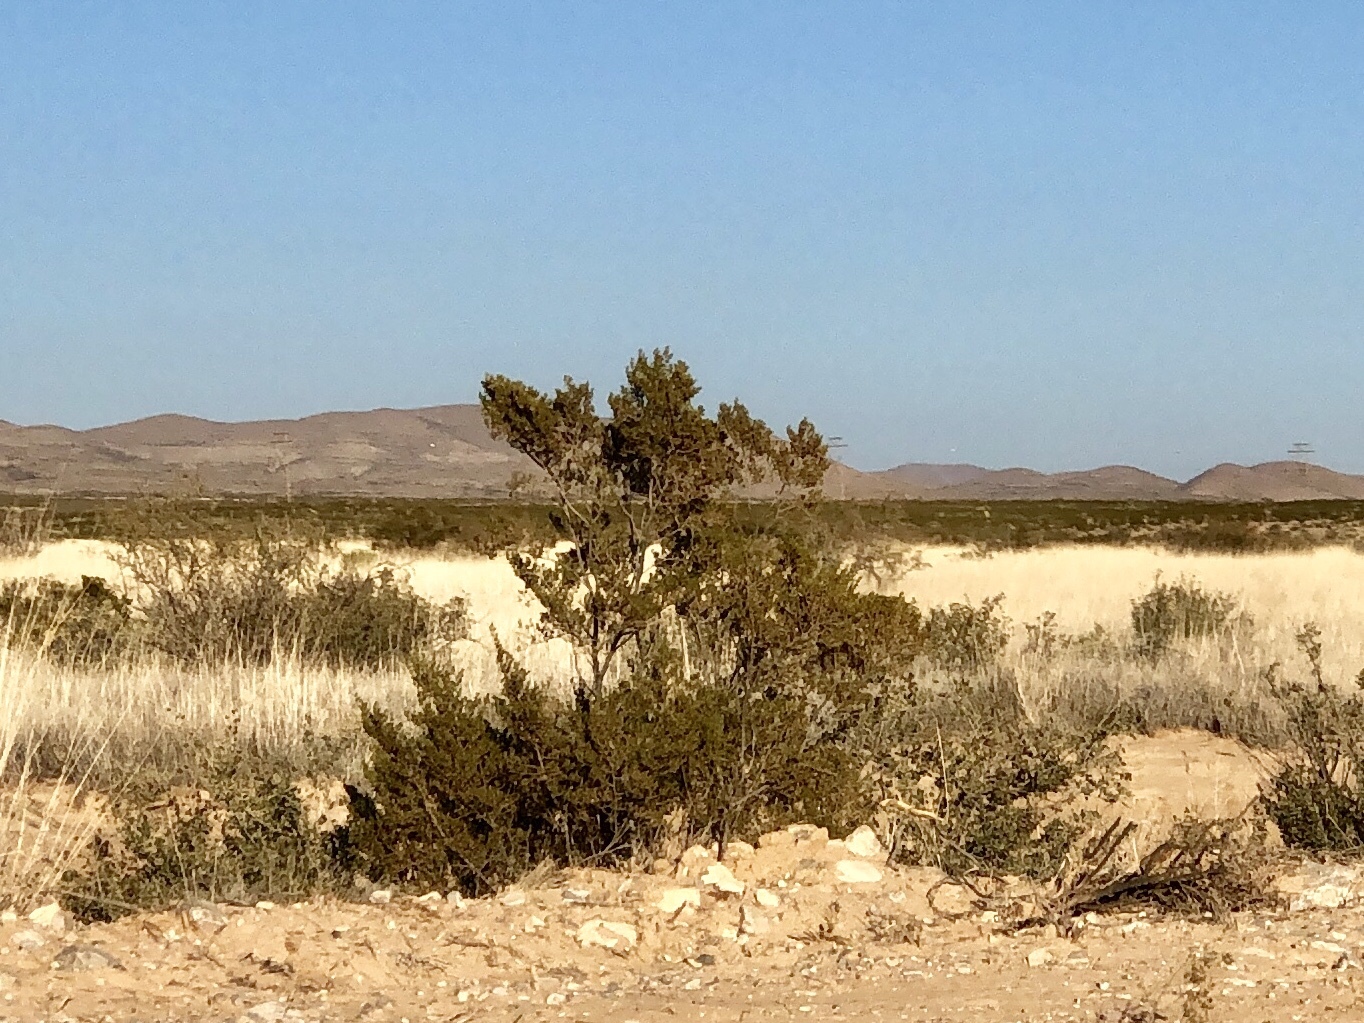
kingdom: Plantae
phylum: Tracheophyta
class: Magnoliopsida
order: Zygophyllales
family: Zygophyllaceae
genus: Larrea
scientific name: Larrea tridentata
